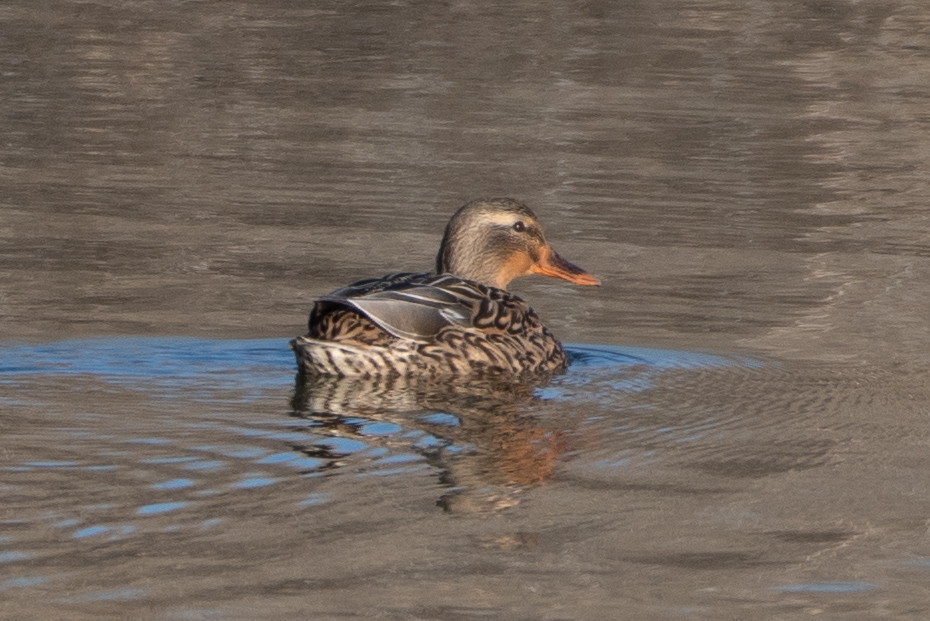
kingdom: Animalia
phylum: Chordata
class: Aves
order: Anseriformes
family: Anatidae
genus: Anas
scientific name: Anas platyrhynchos
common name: Mallard
